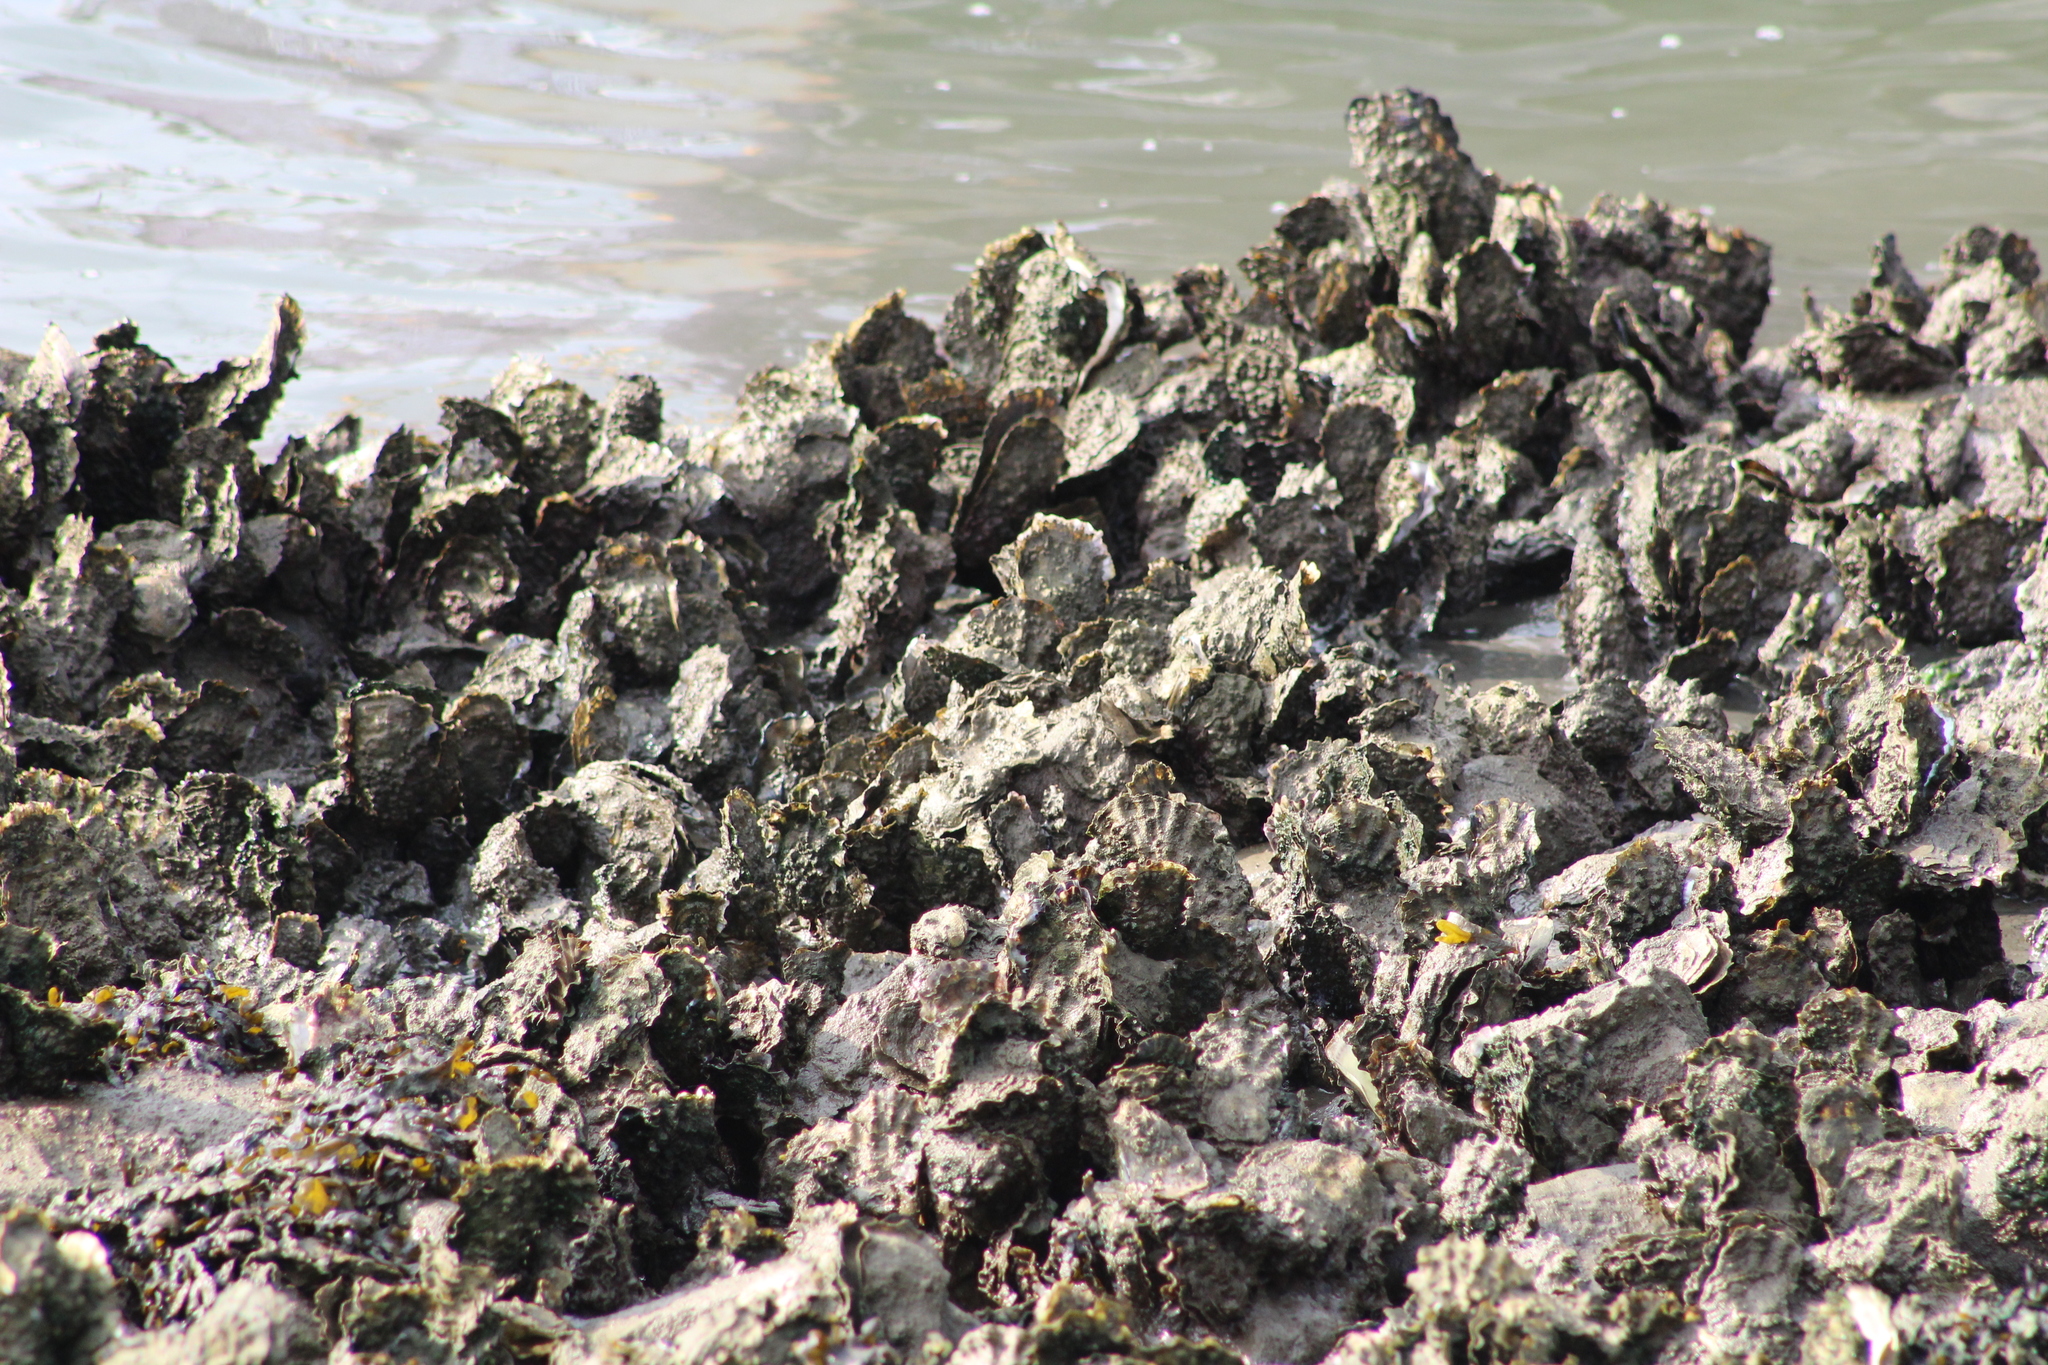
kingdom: Animalia
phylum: Mollusca
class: Bivalvia
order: Ostreida
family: Ostreidae
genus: Magallana
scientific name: Magallana gigas
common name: Pacific oyster
